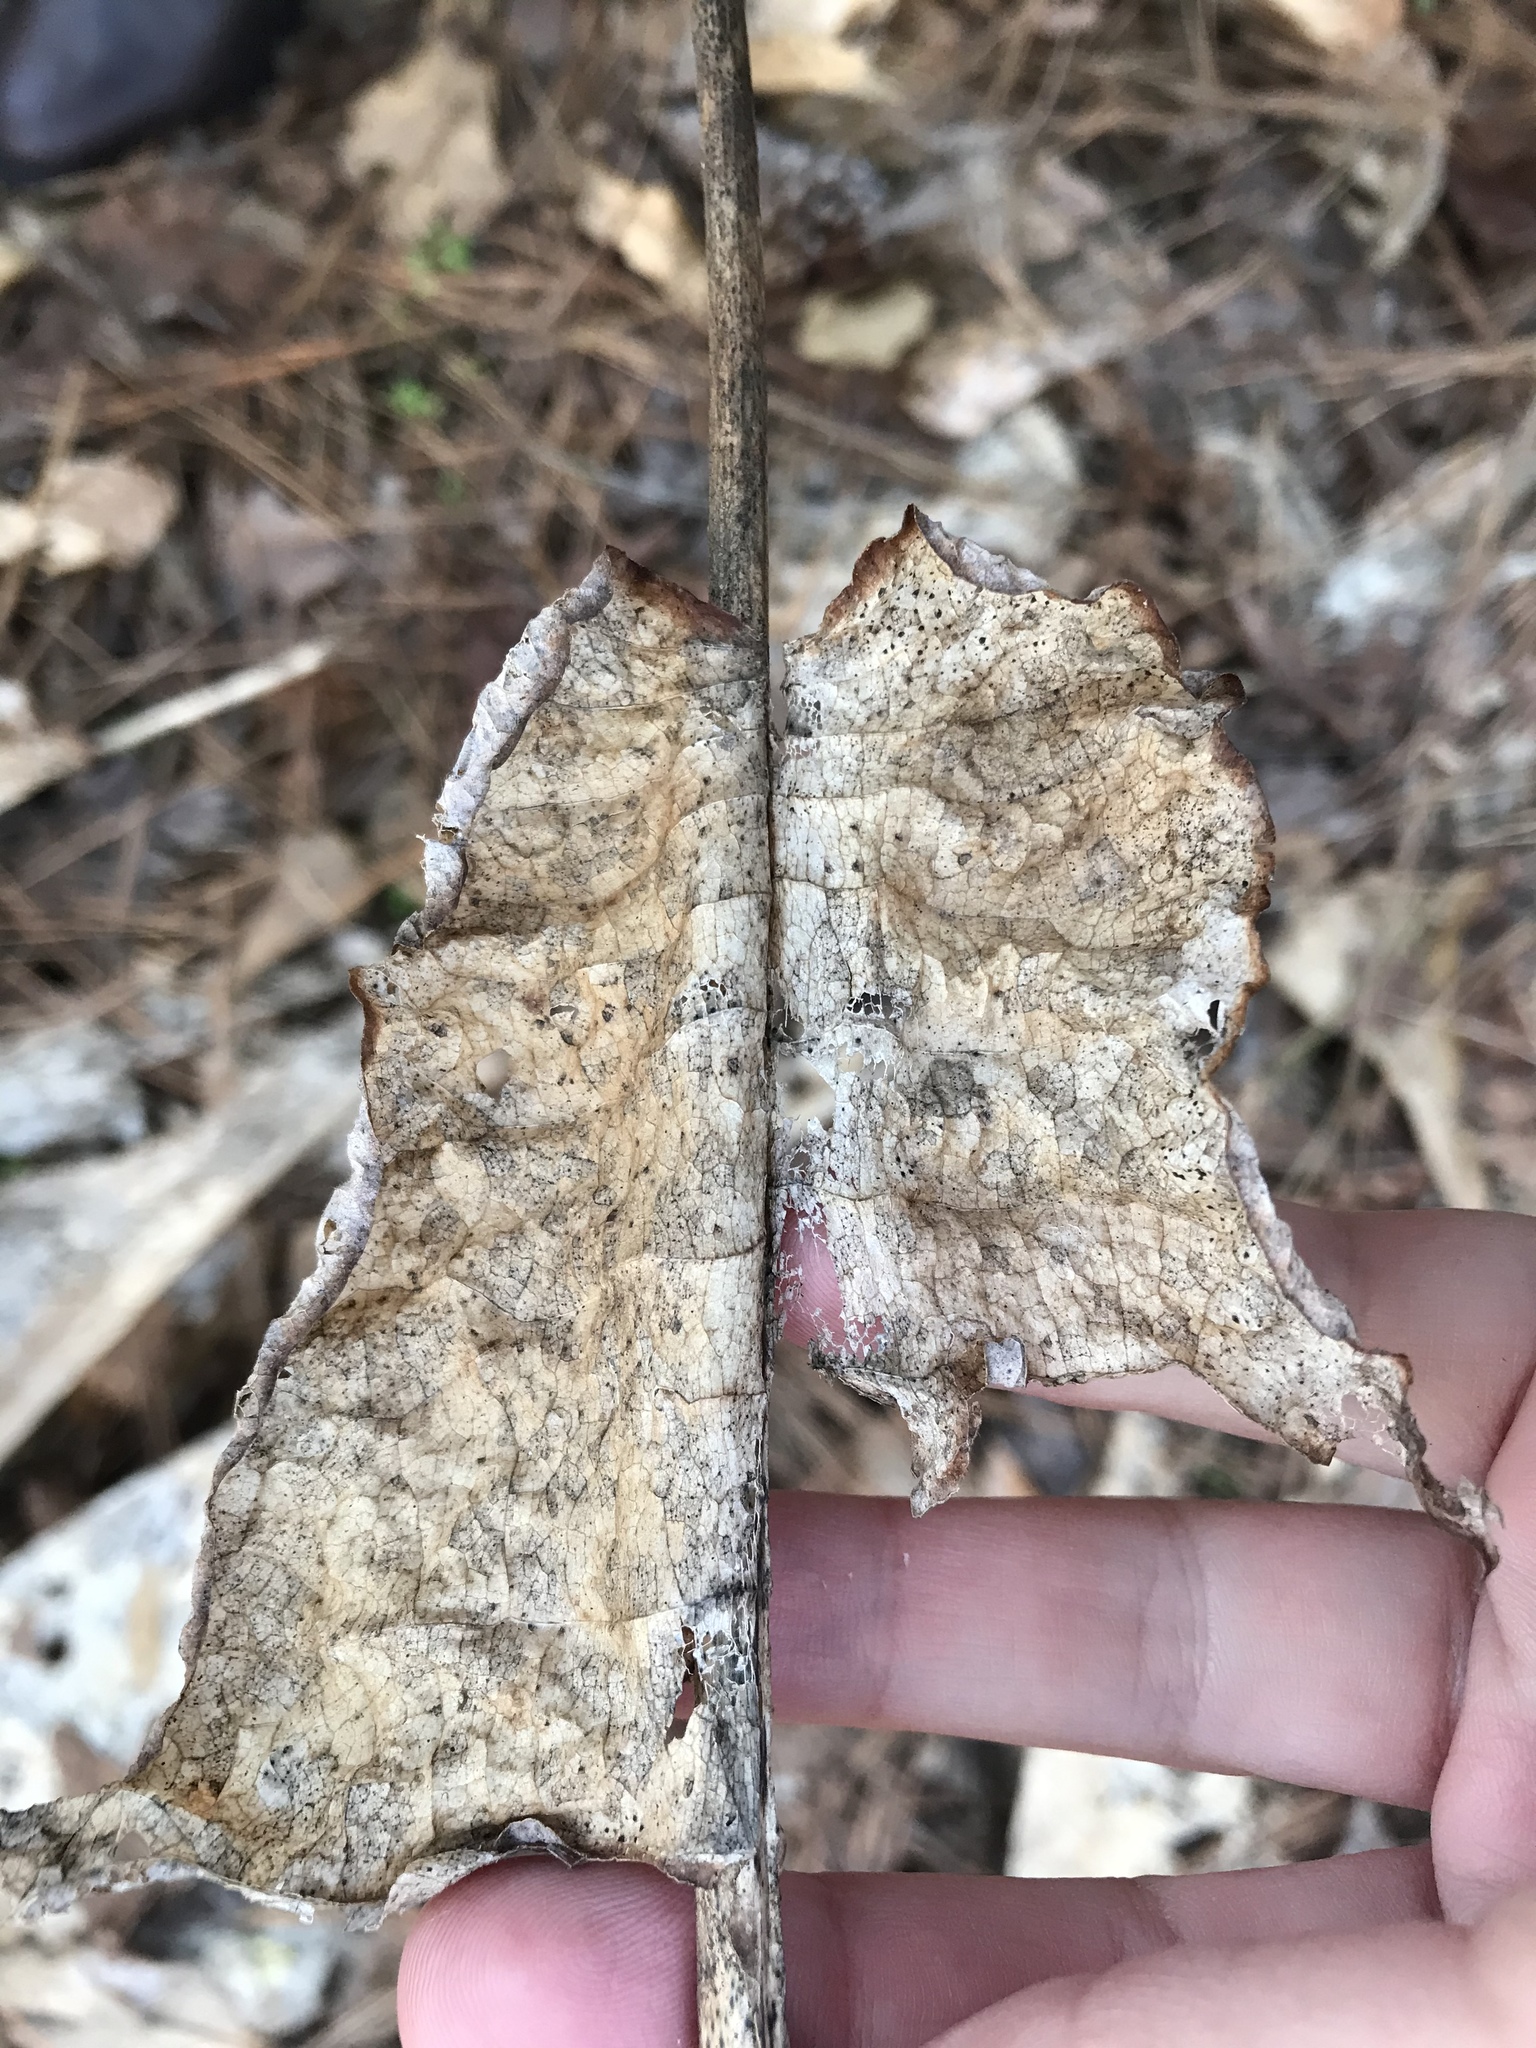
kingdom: Plantae
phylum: Tracheophyta
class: Magnoliopsida
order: Magnoliales
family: Magnoliaceae
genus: Magnolia
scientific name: Magnolia macrophylla
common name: Big-leaf magnolia
